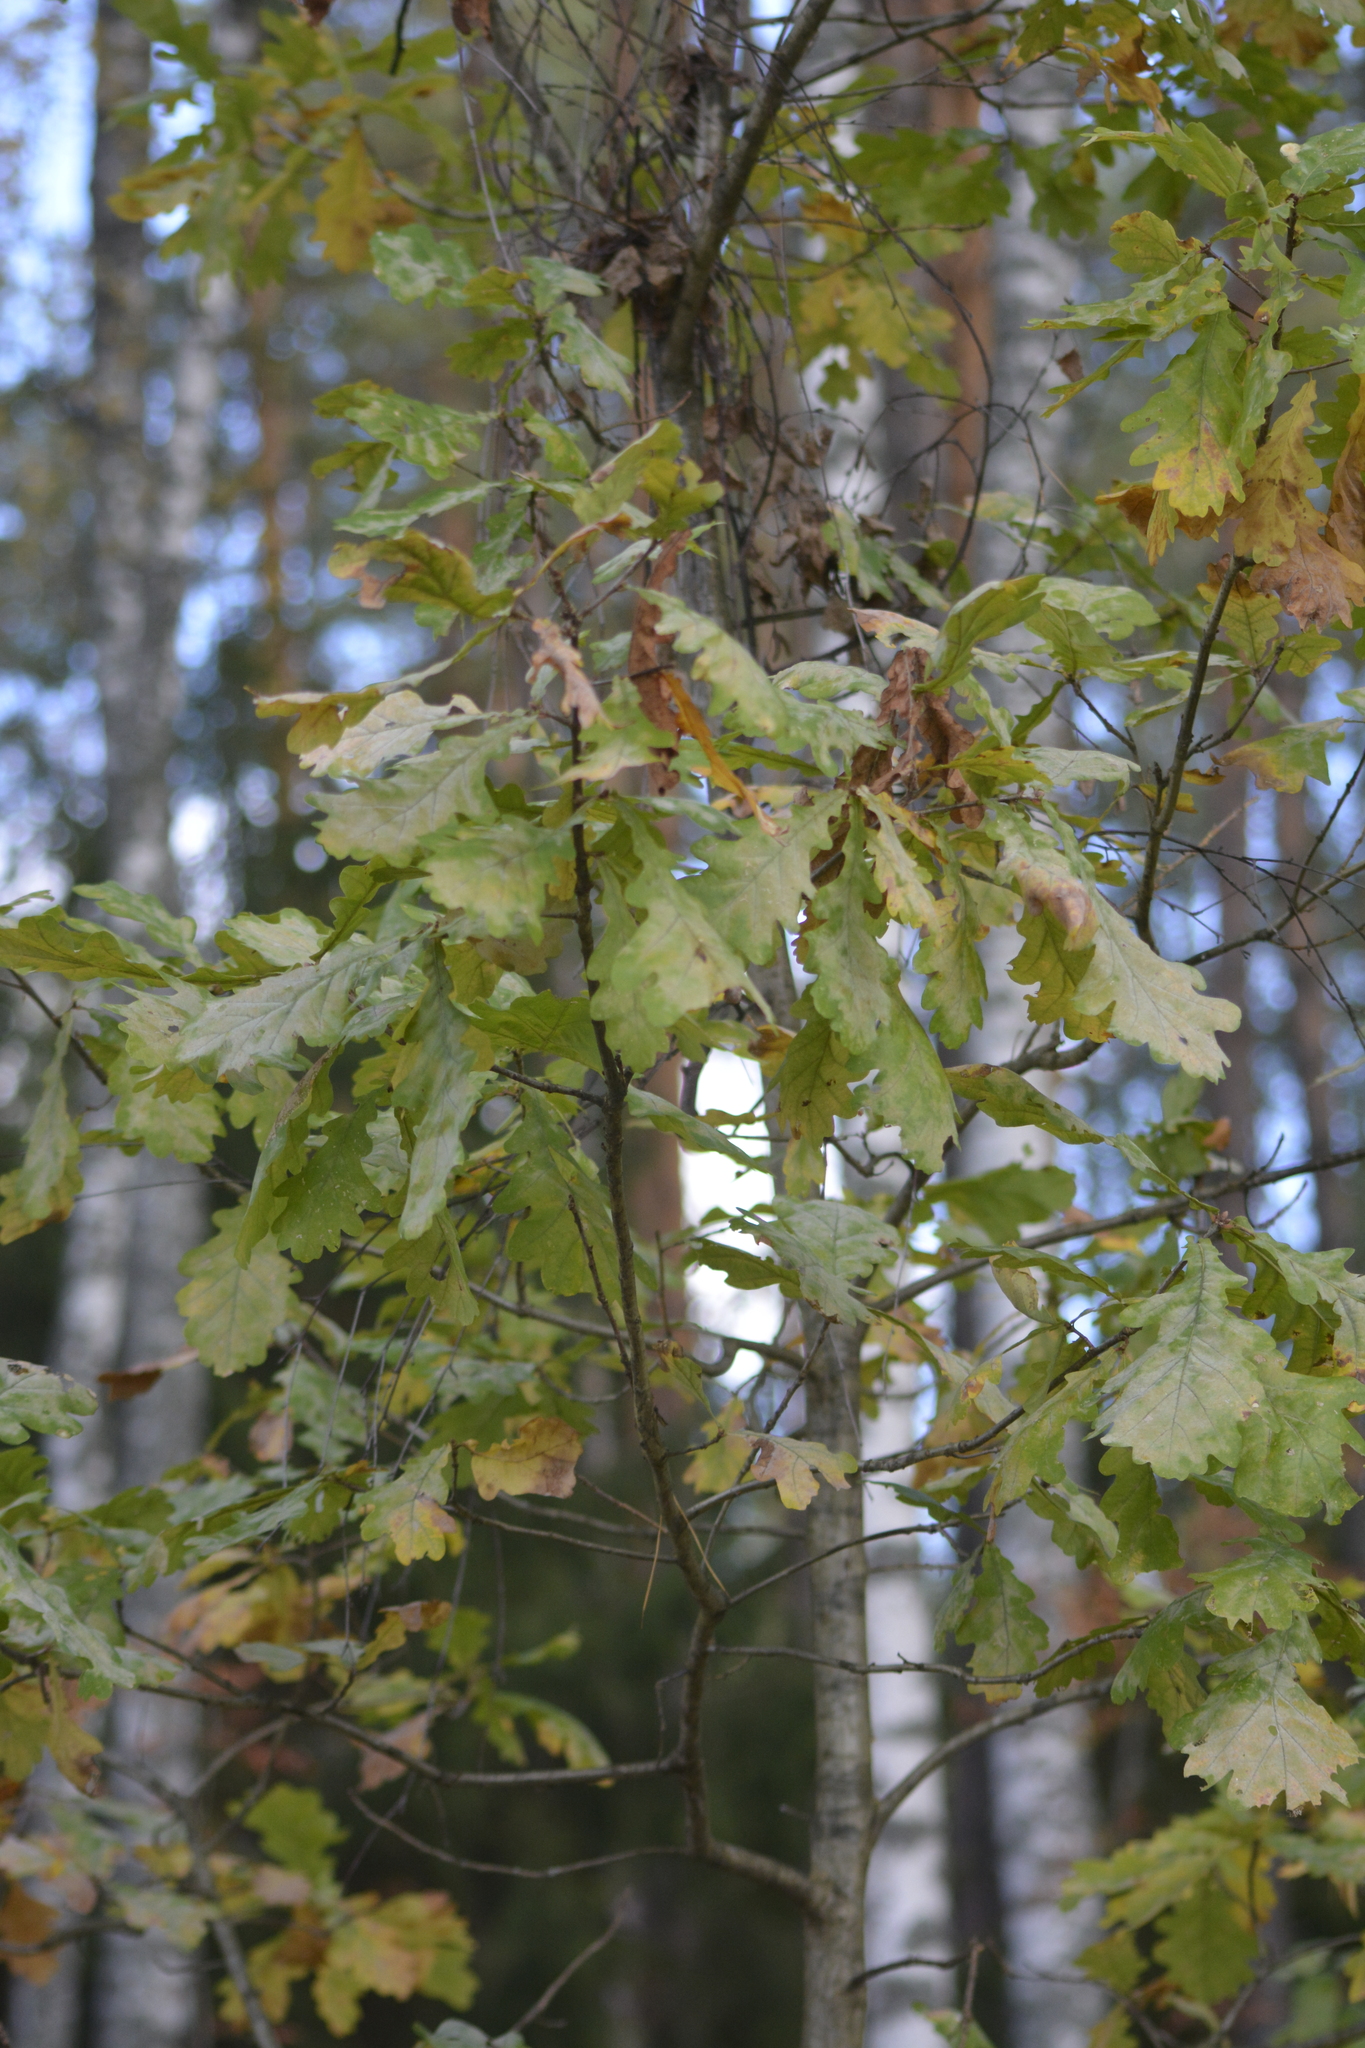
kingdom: Plantae
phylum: Tracheophyta
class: Magnoliopsida
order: Fagales
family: Fagaceae
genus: Quercus
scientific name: Quercus robur
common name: Pedunculate oak
